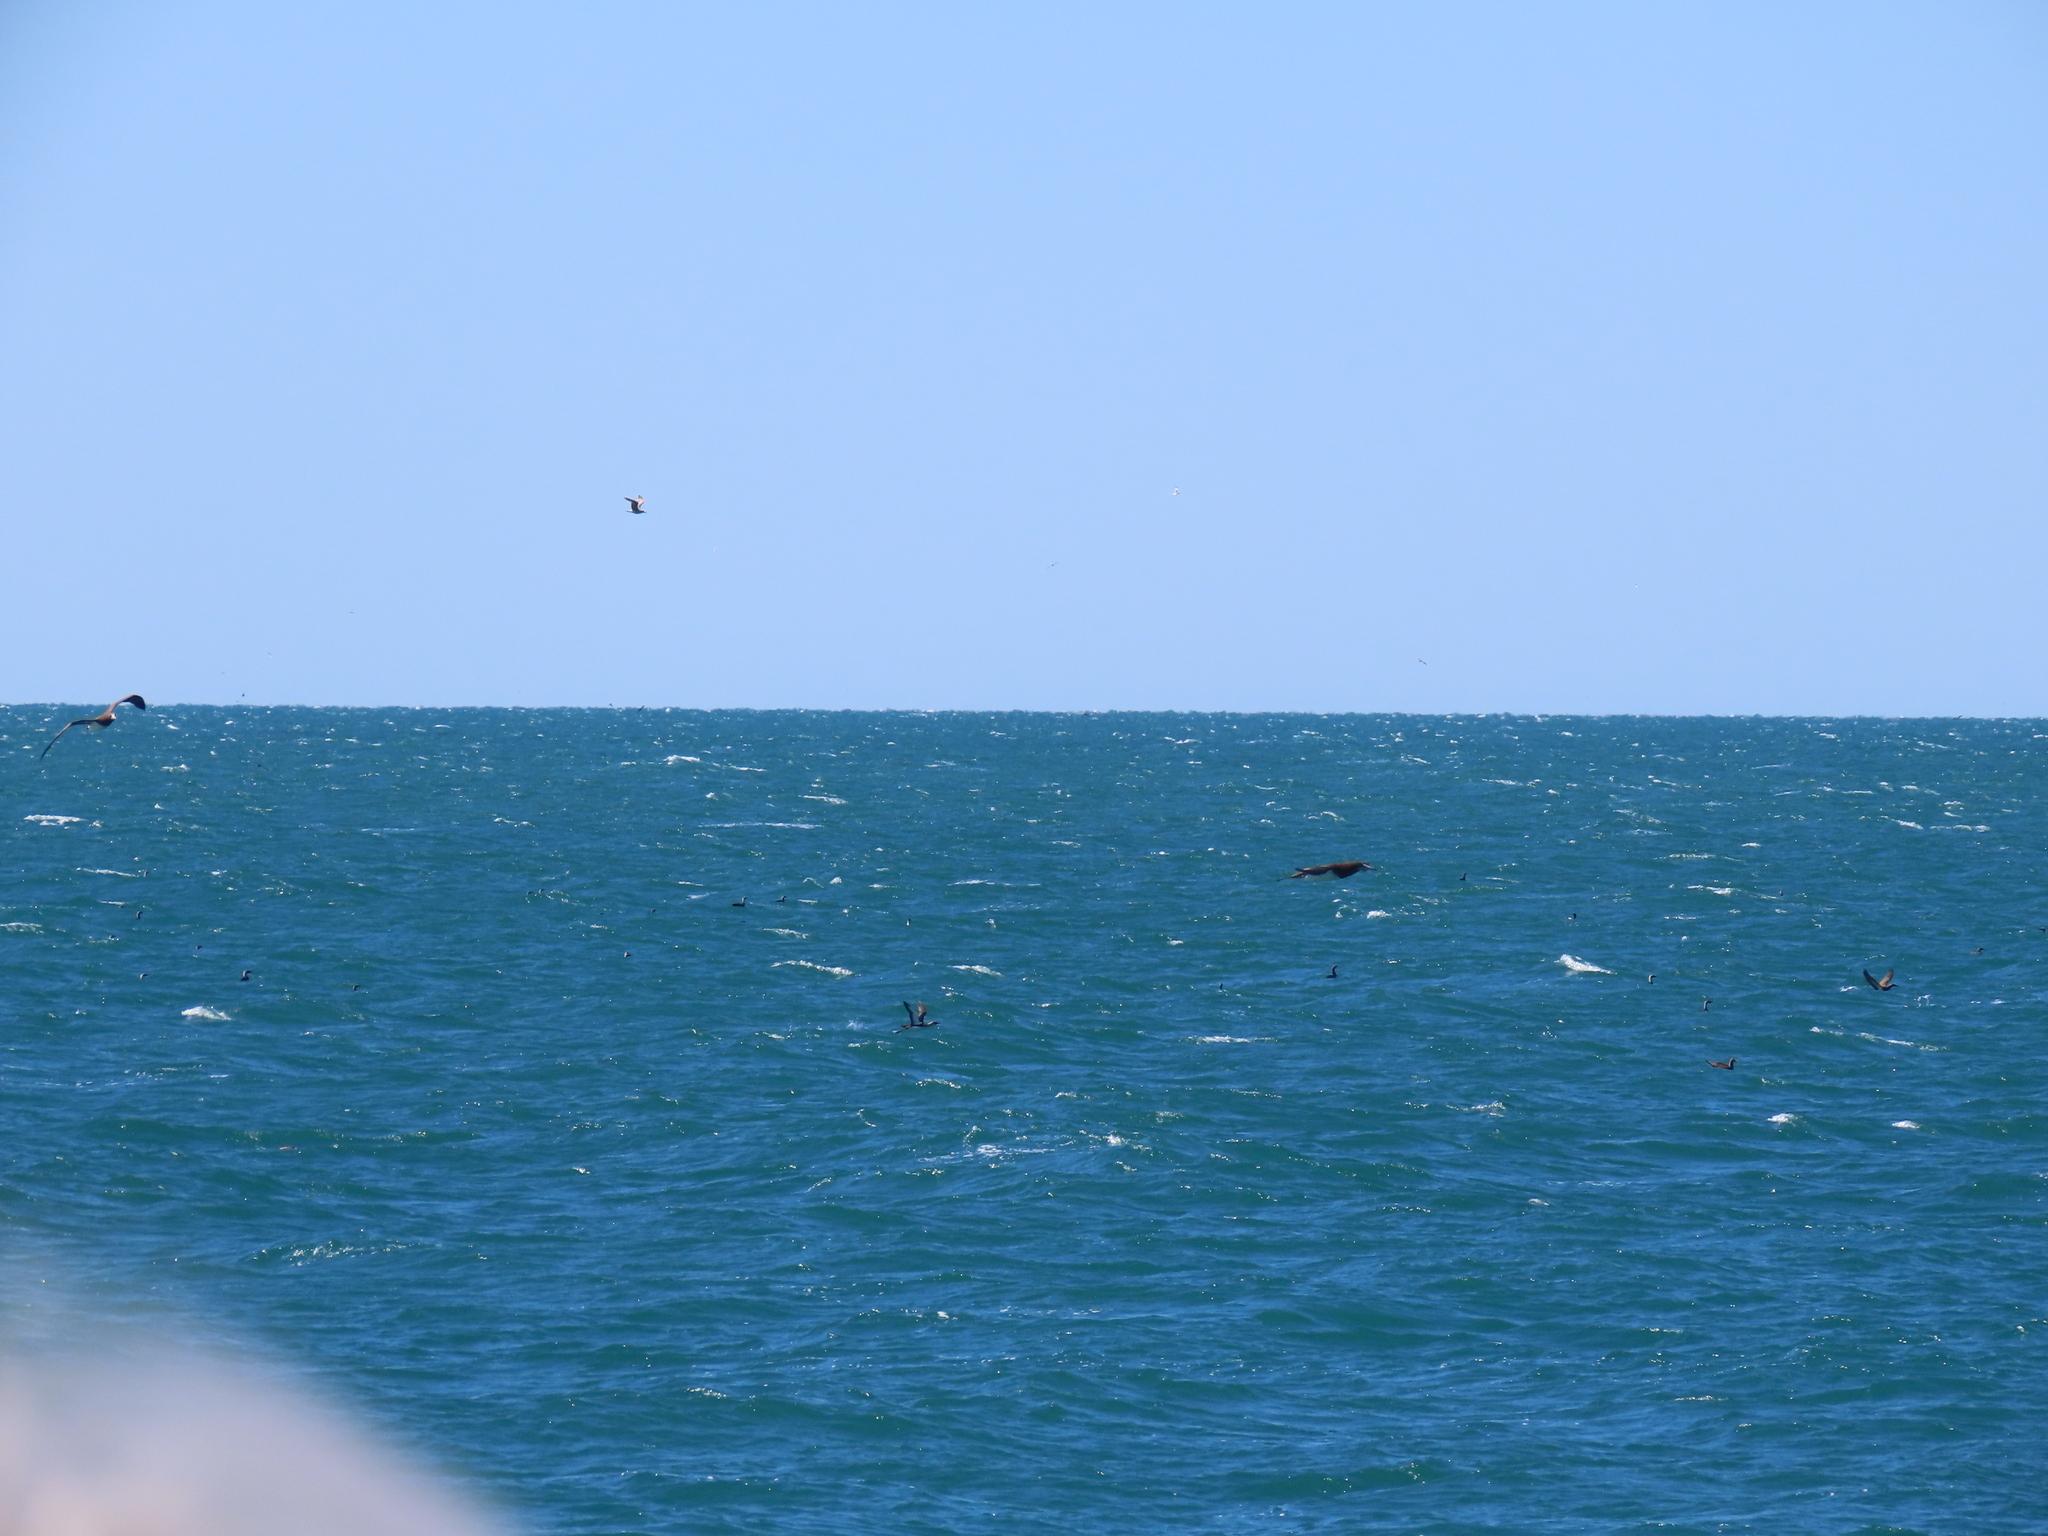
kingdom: Animalia
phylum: Chordata
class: Aves
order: Suliformes
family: Sulidae
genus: Sula
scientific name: Sula leucogaster
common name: Brown booby
